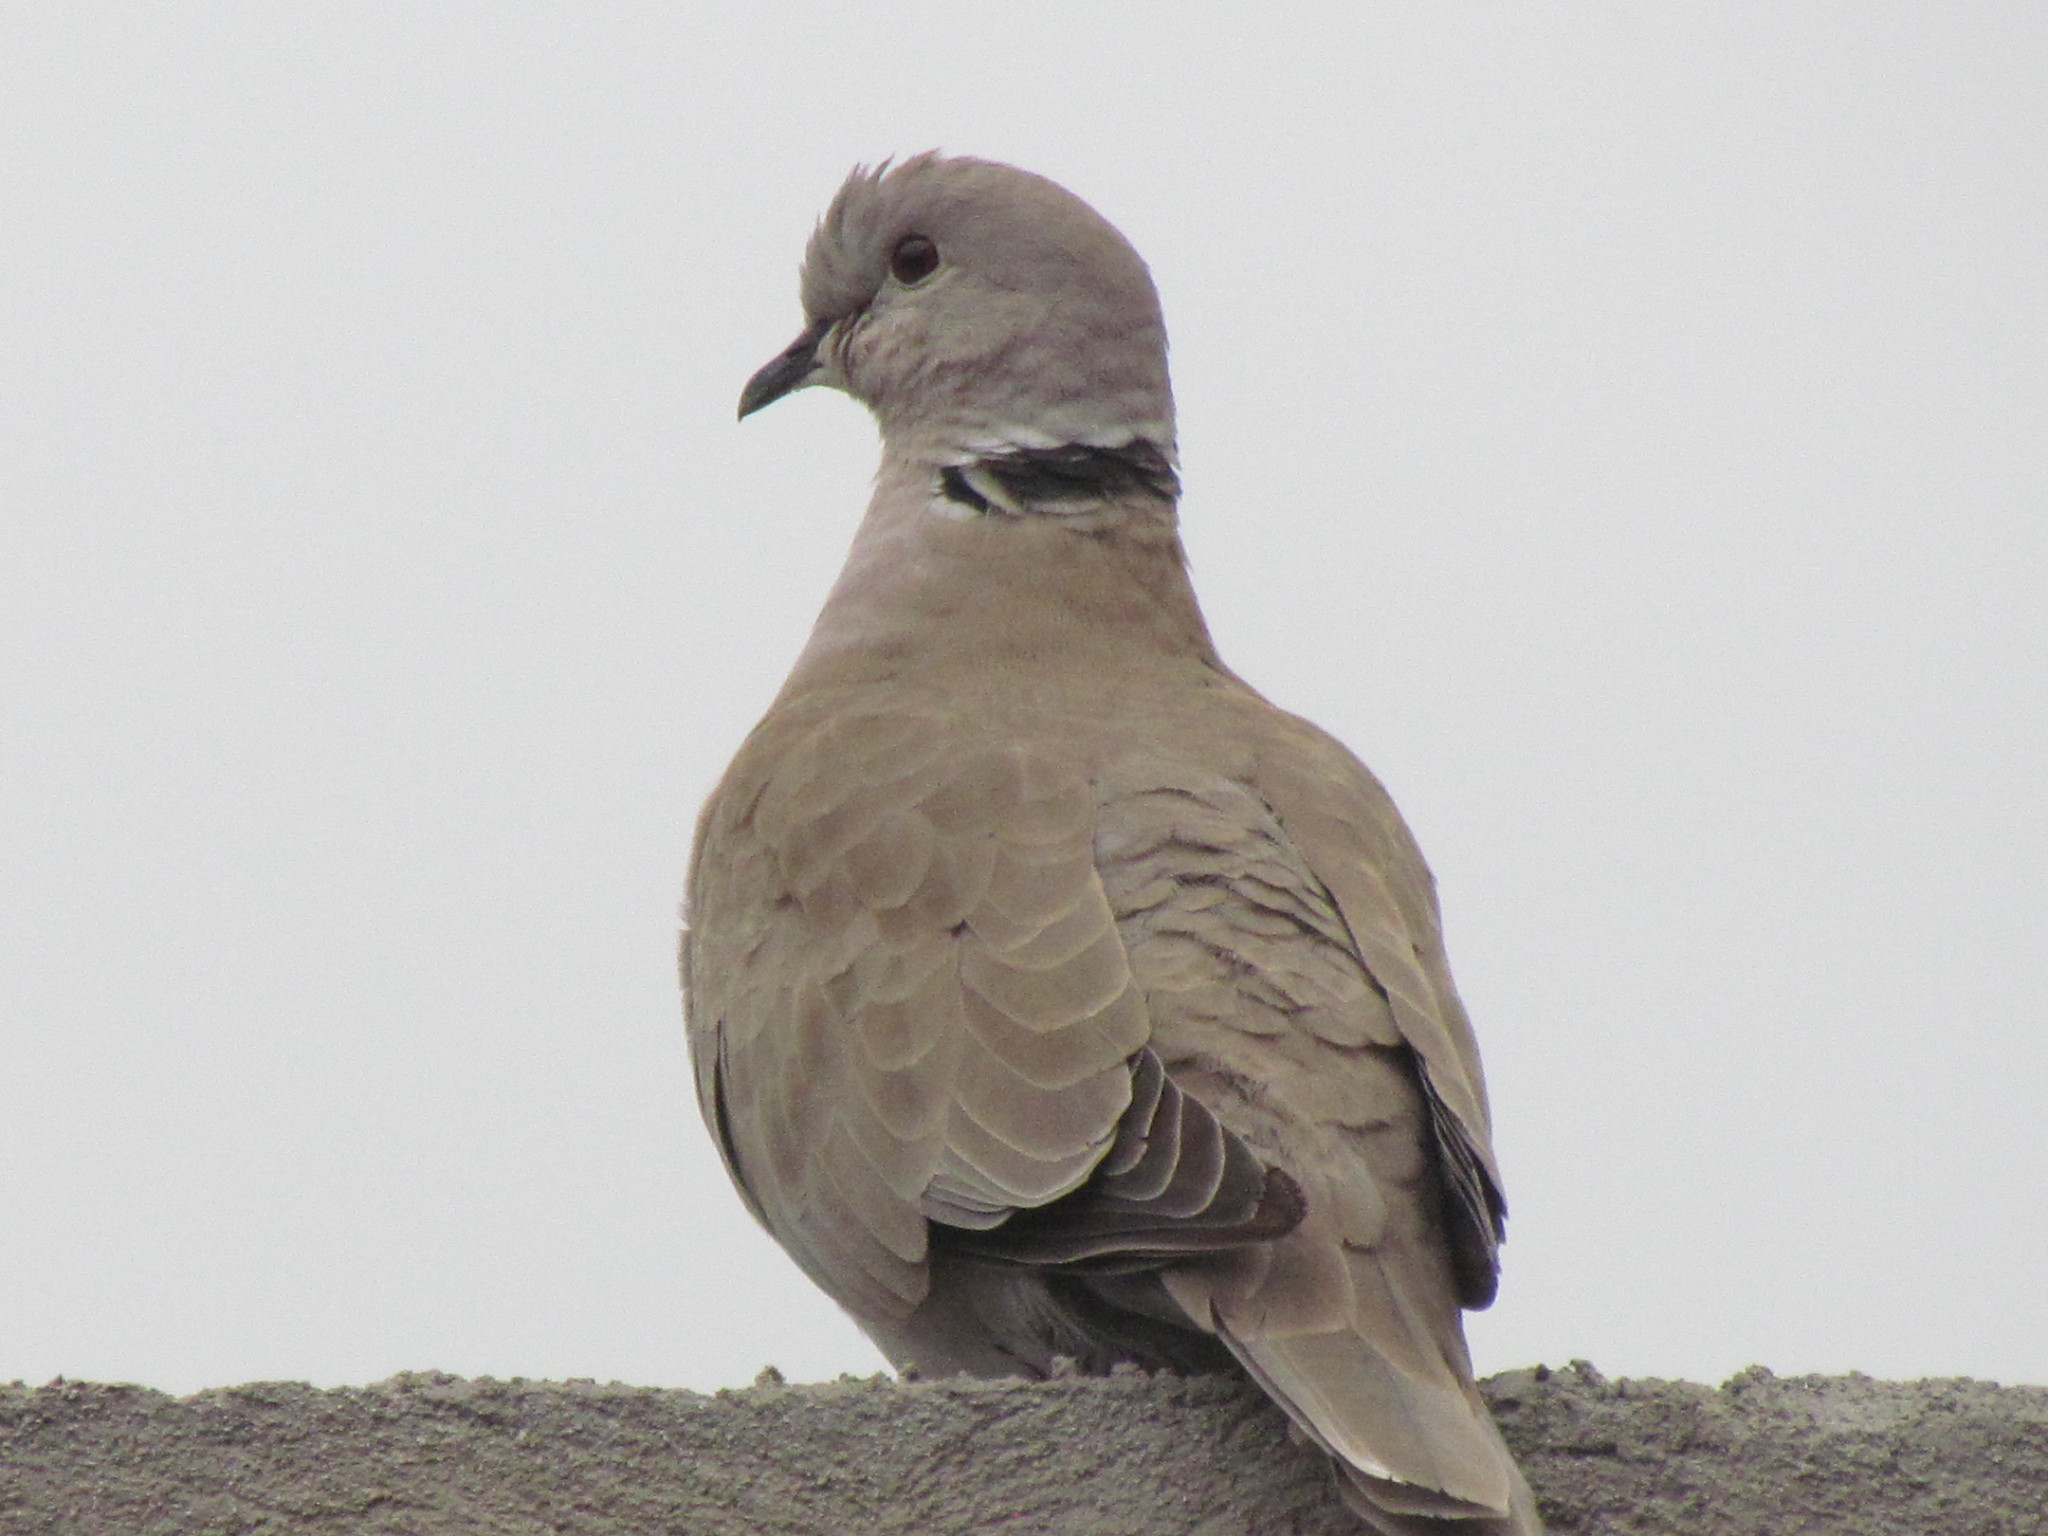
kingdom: Animalia
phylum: Chordata
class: Aves
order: Columbiformes
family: Columbidae
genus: Streptopelia
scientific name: Streptopelia decaocto
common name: Eurasian collared dove
